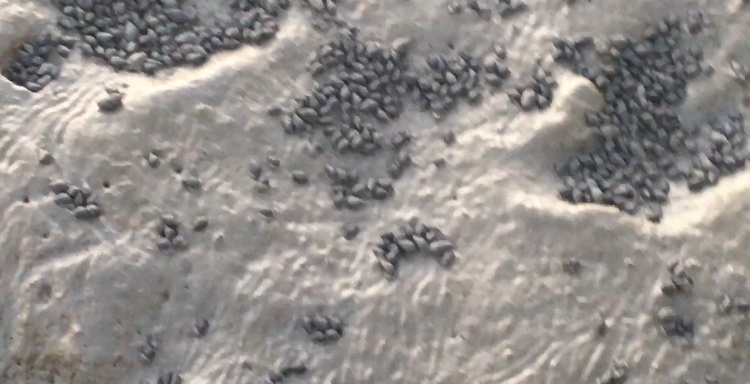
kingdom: Animalia
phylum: Mollusca
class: Gastropoda
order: Neogastropoda
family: Nassariidae
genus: Ilyanassa
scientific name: Ilyanassa obsoleta
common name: Eastern mudsnail
